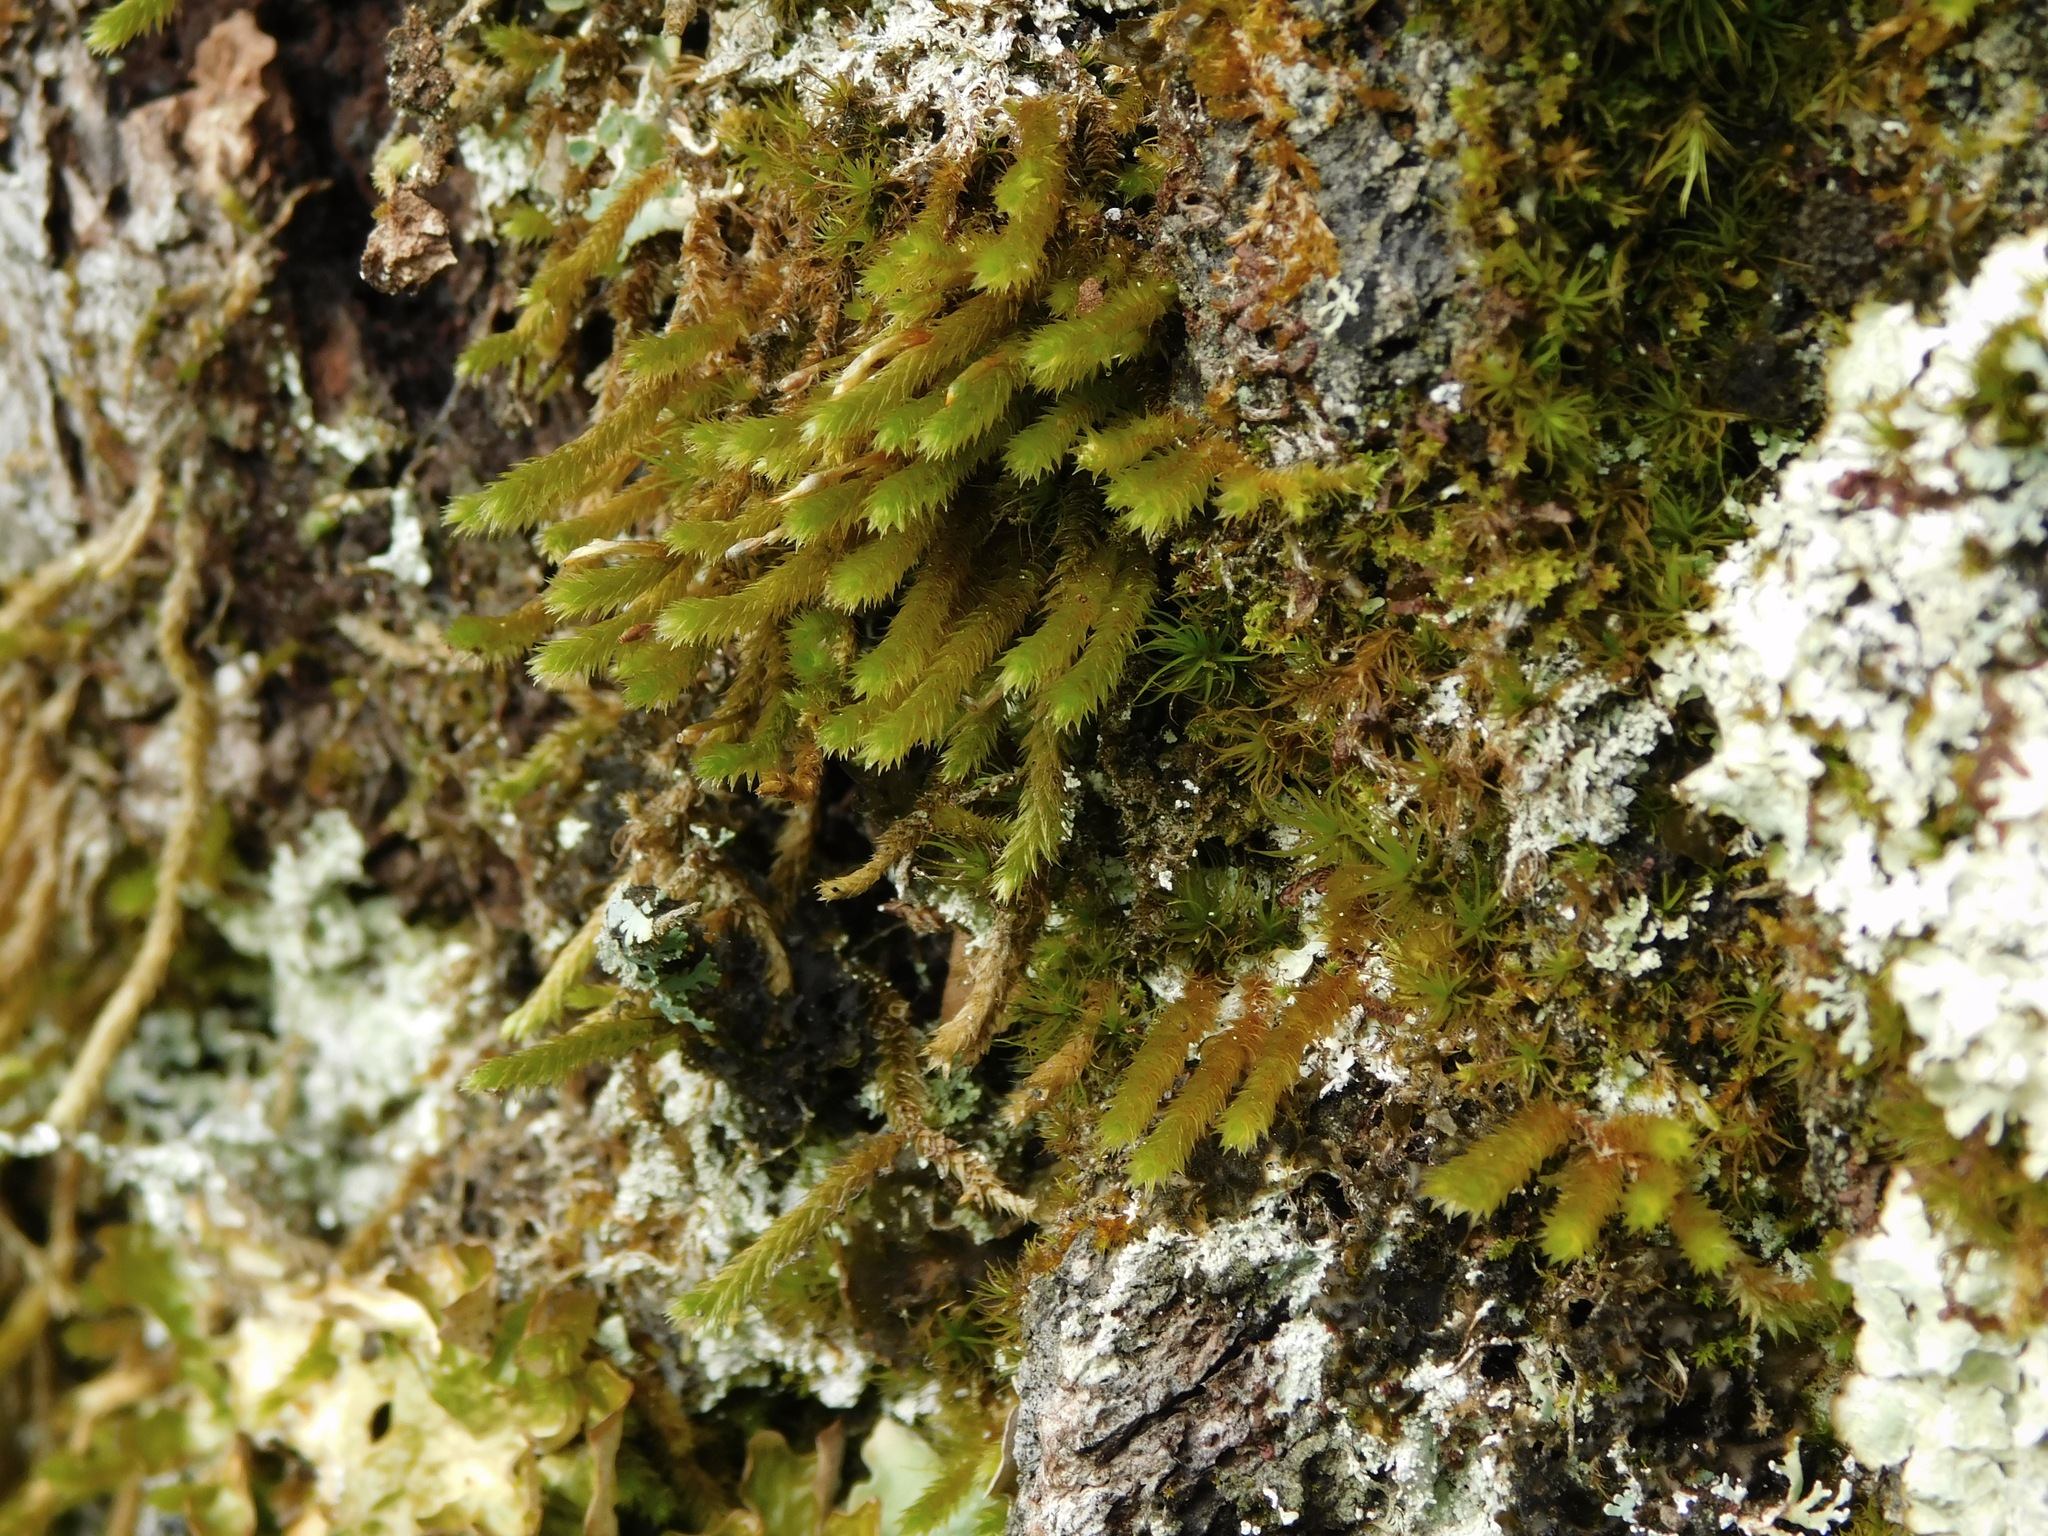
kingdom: Plantae
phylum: Bryophyta
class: Bryopsida
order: Hypnales
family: Leucodontaceae
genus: Leucodon
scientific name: Leucodon julaceus
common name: Smooth hook moss
